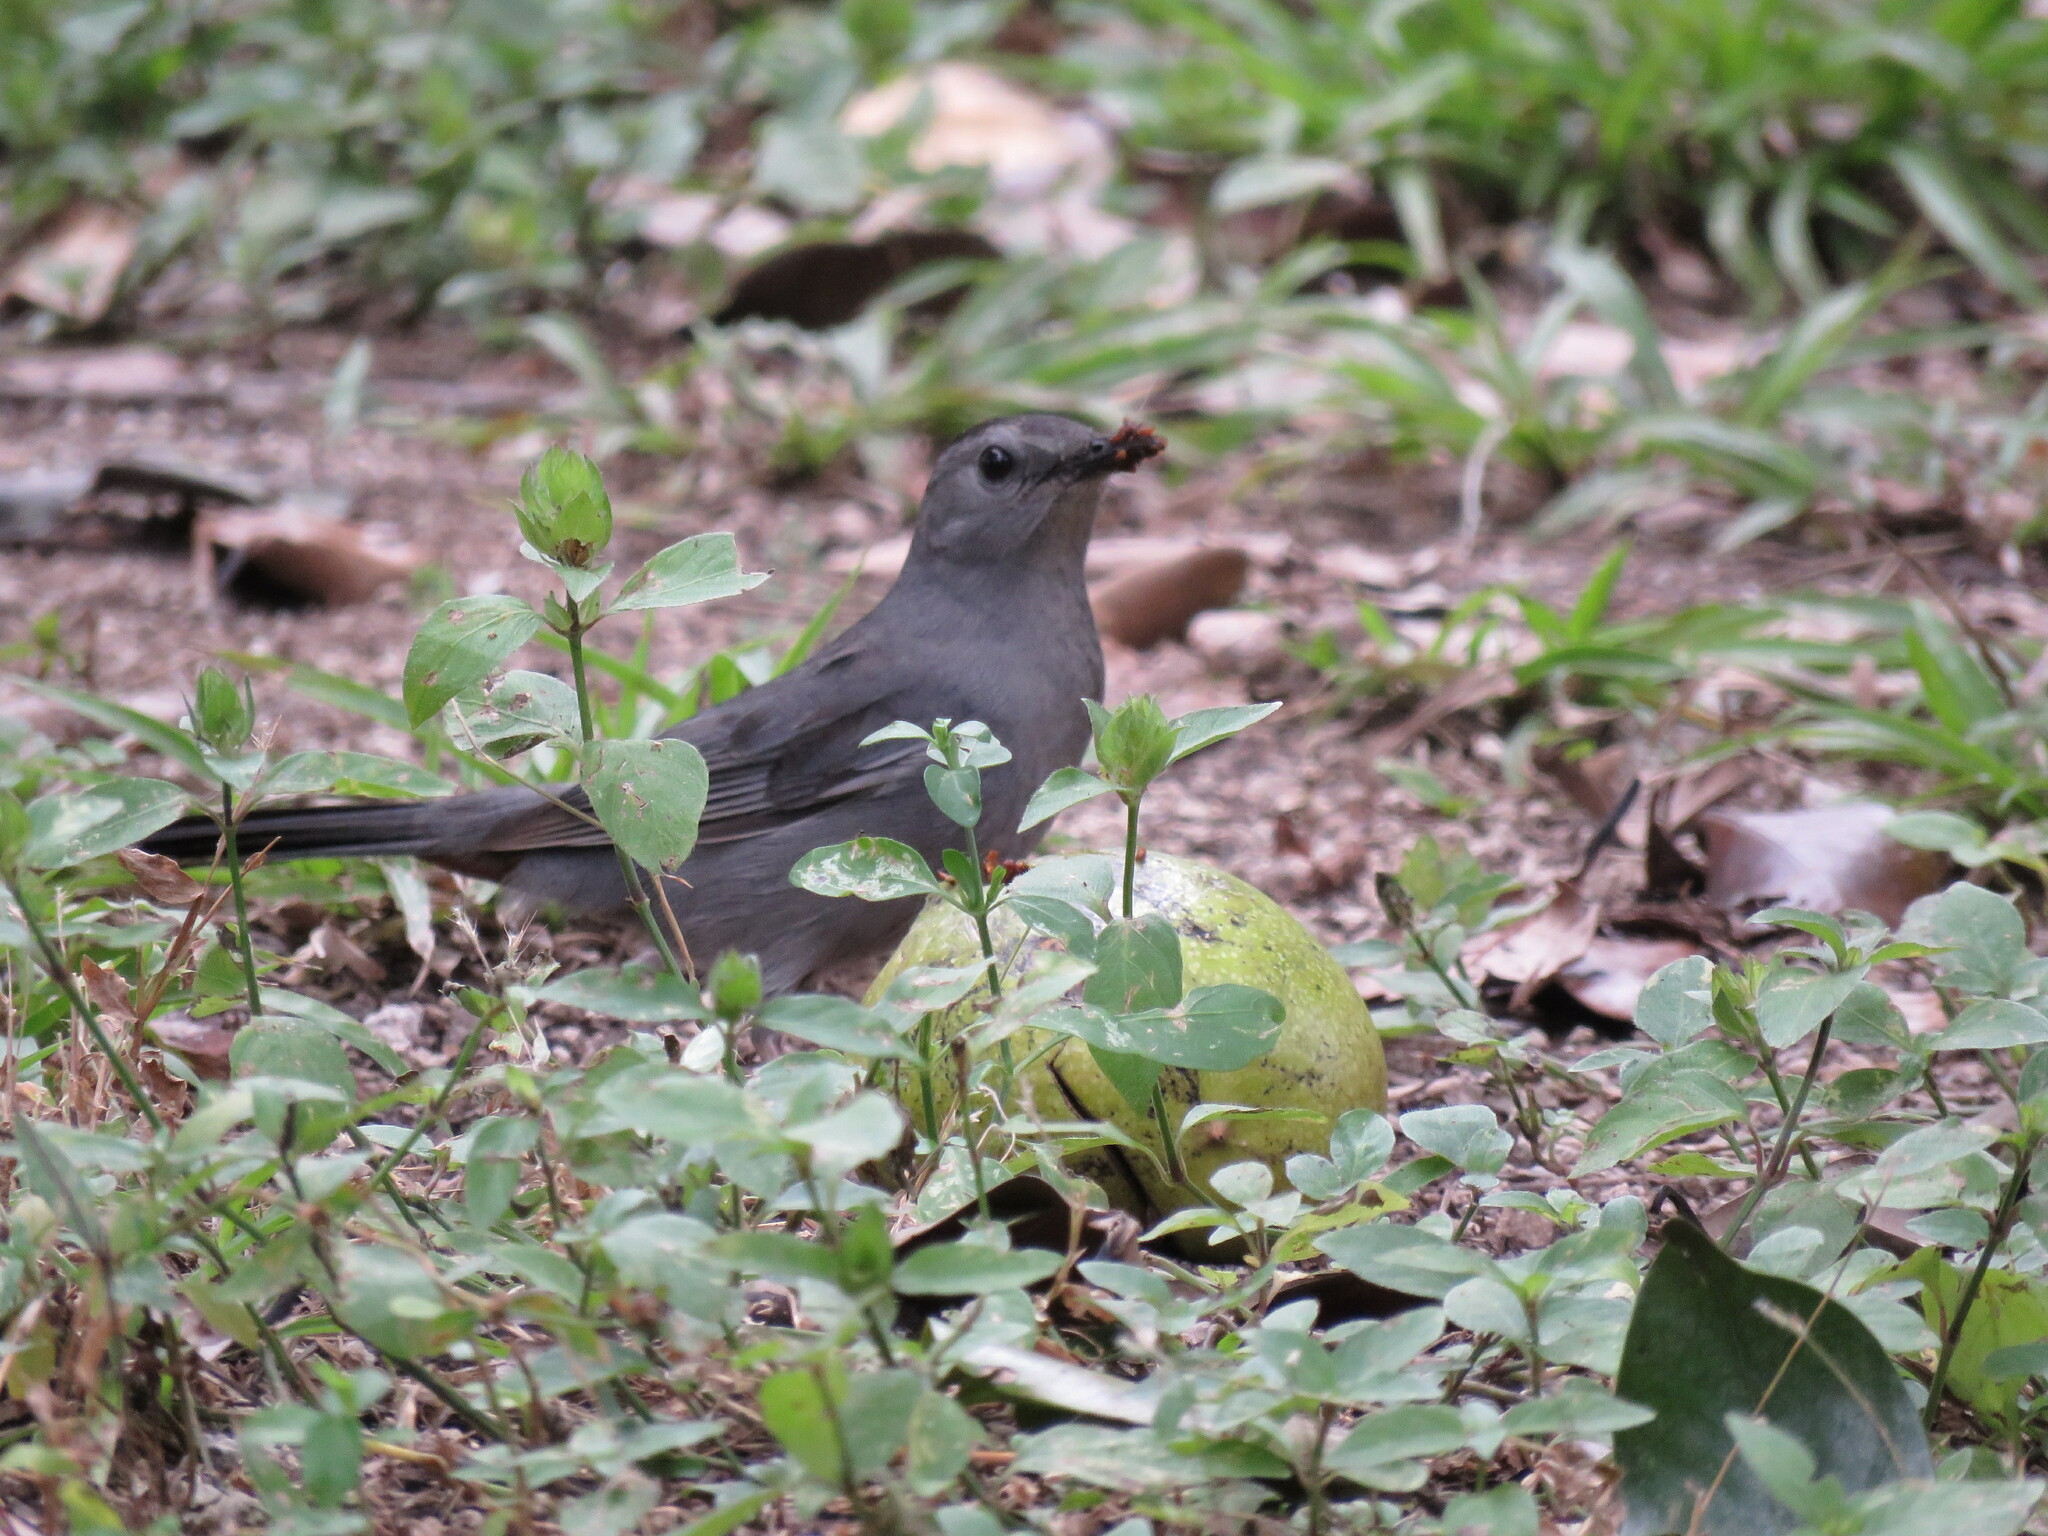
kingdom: Animalia
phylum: Chordata
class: Aves
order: Passeriformes
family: Mimidae
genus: Dumetella
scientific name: Dumetella carolinensis
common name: Gray catbird
